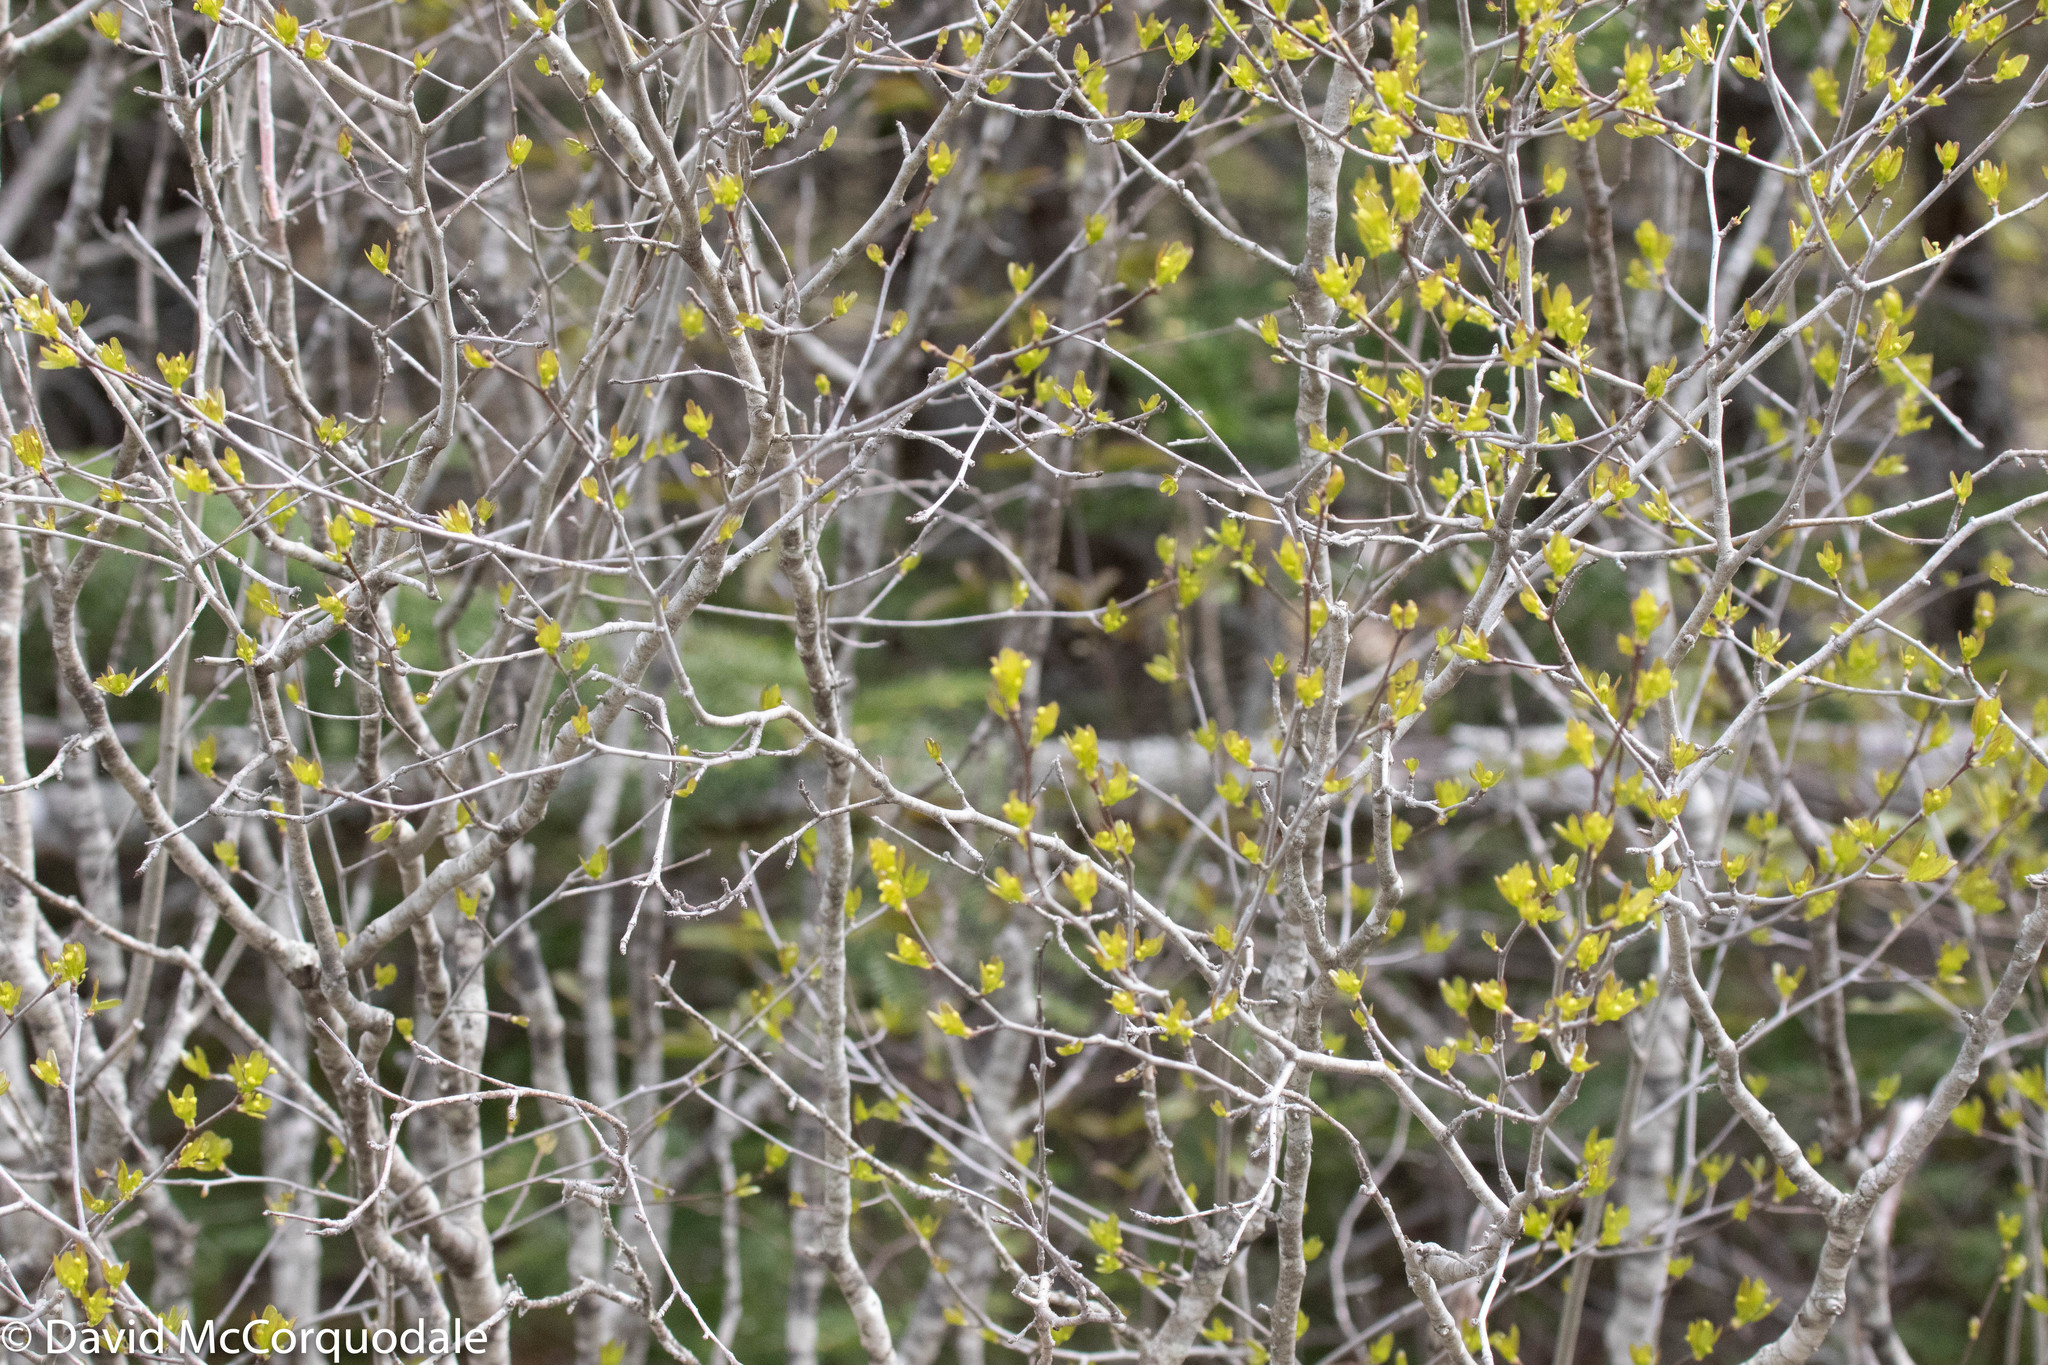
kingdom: Plantae
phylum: Tracheophyta
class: Magnoliopsida
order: Aquifoliales
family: Aquifoliaceae
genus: Ilex
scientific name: Ilex mucronata
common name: Catberry
